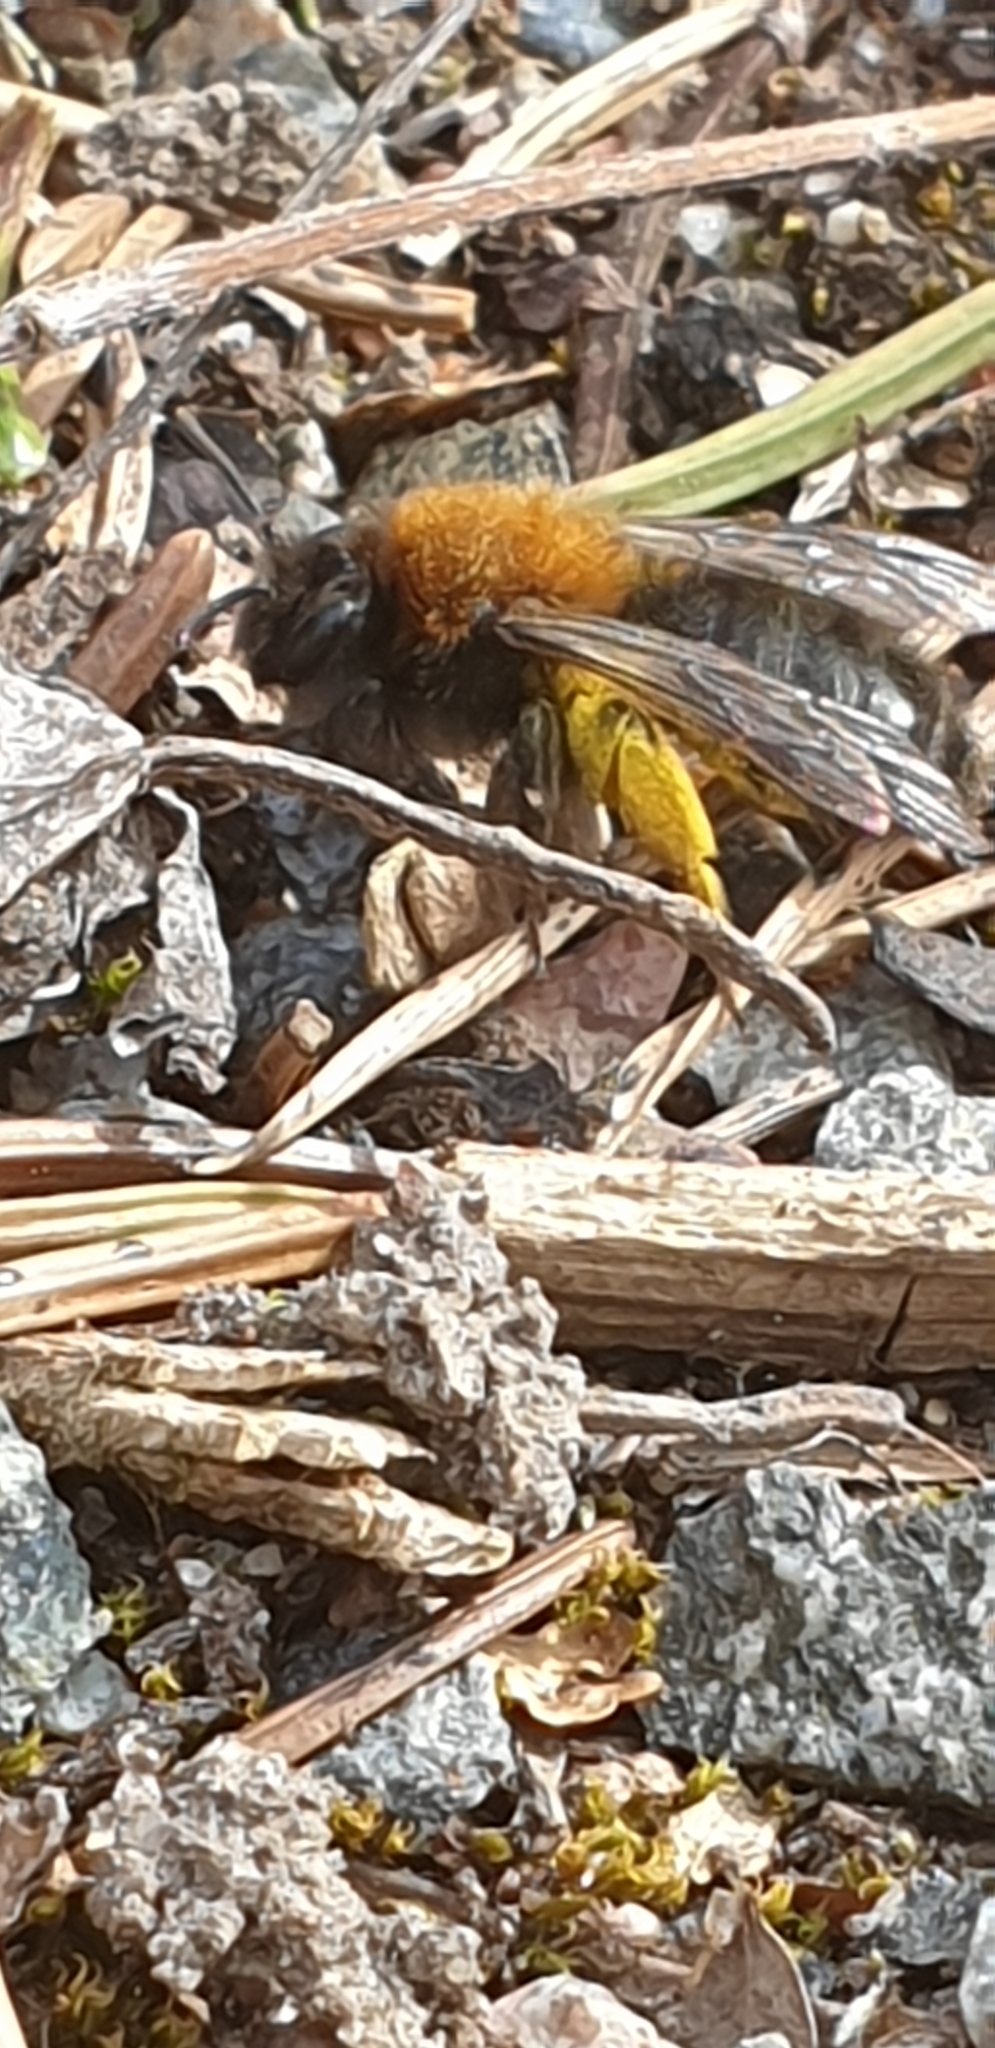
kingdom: Animalia
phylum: Arthropoda
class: Insecta
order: Hymenoptera
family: Andrenidae
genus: Andrena
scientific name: Andrena clarkella
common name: Clarke's mining bee
